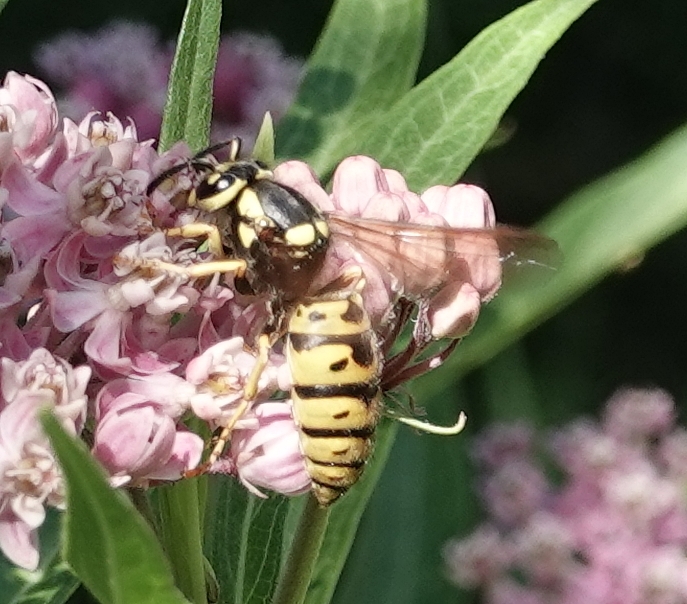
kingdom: Animalia
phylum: Arthropoda
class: Insecta
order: Hymenoptera
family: Vespidae
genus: Vespula
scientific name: Vespula atropilosa
